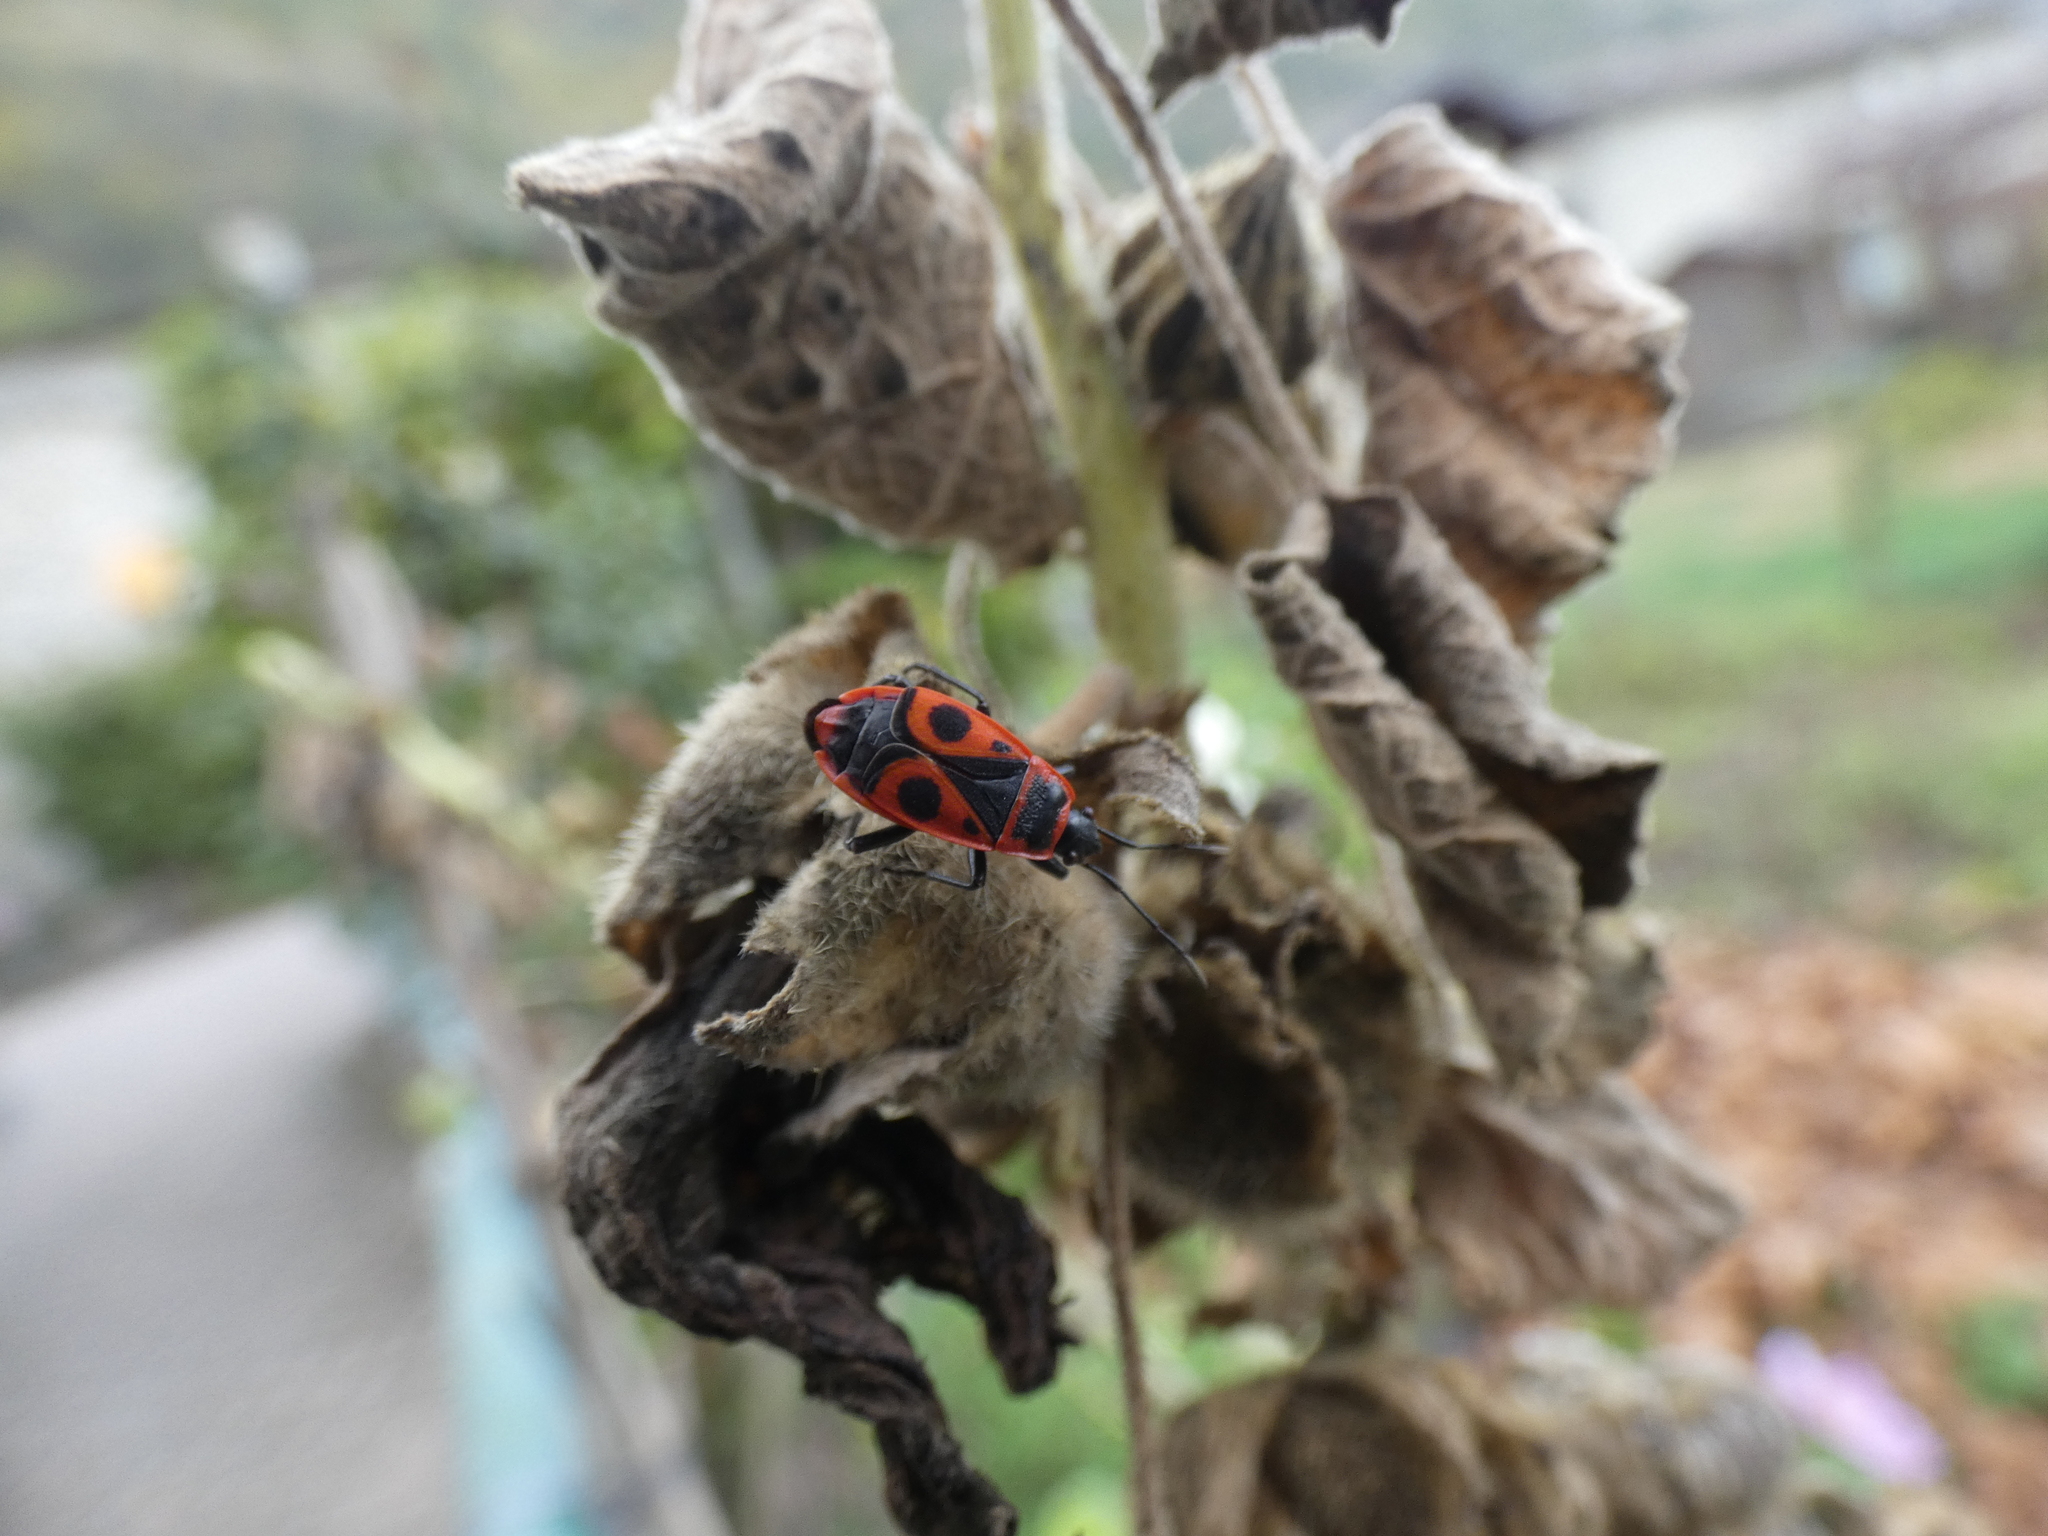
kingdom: Animalia
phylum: Arthropoda
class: Insecta
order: Hemiptera
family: Pyrrhocoridae
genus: Pyrrhocoris
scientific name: Pyrrhocoris apterus
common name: Firebug
